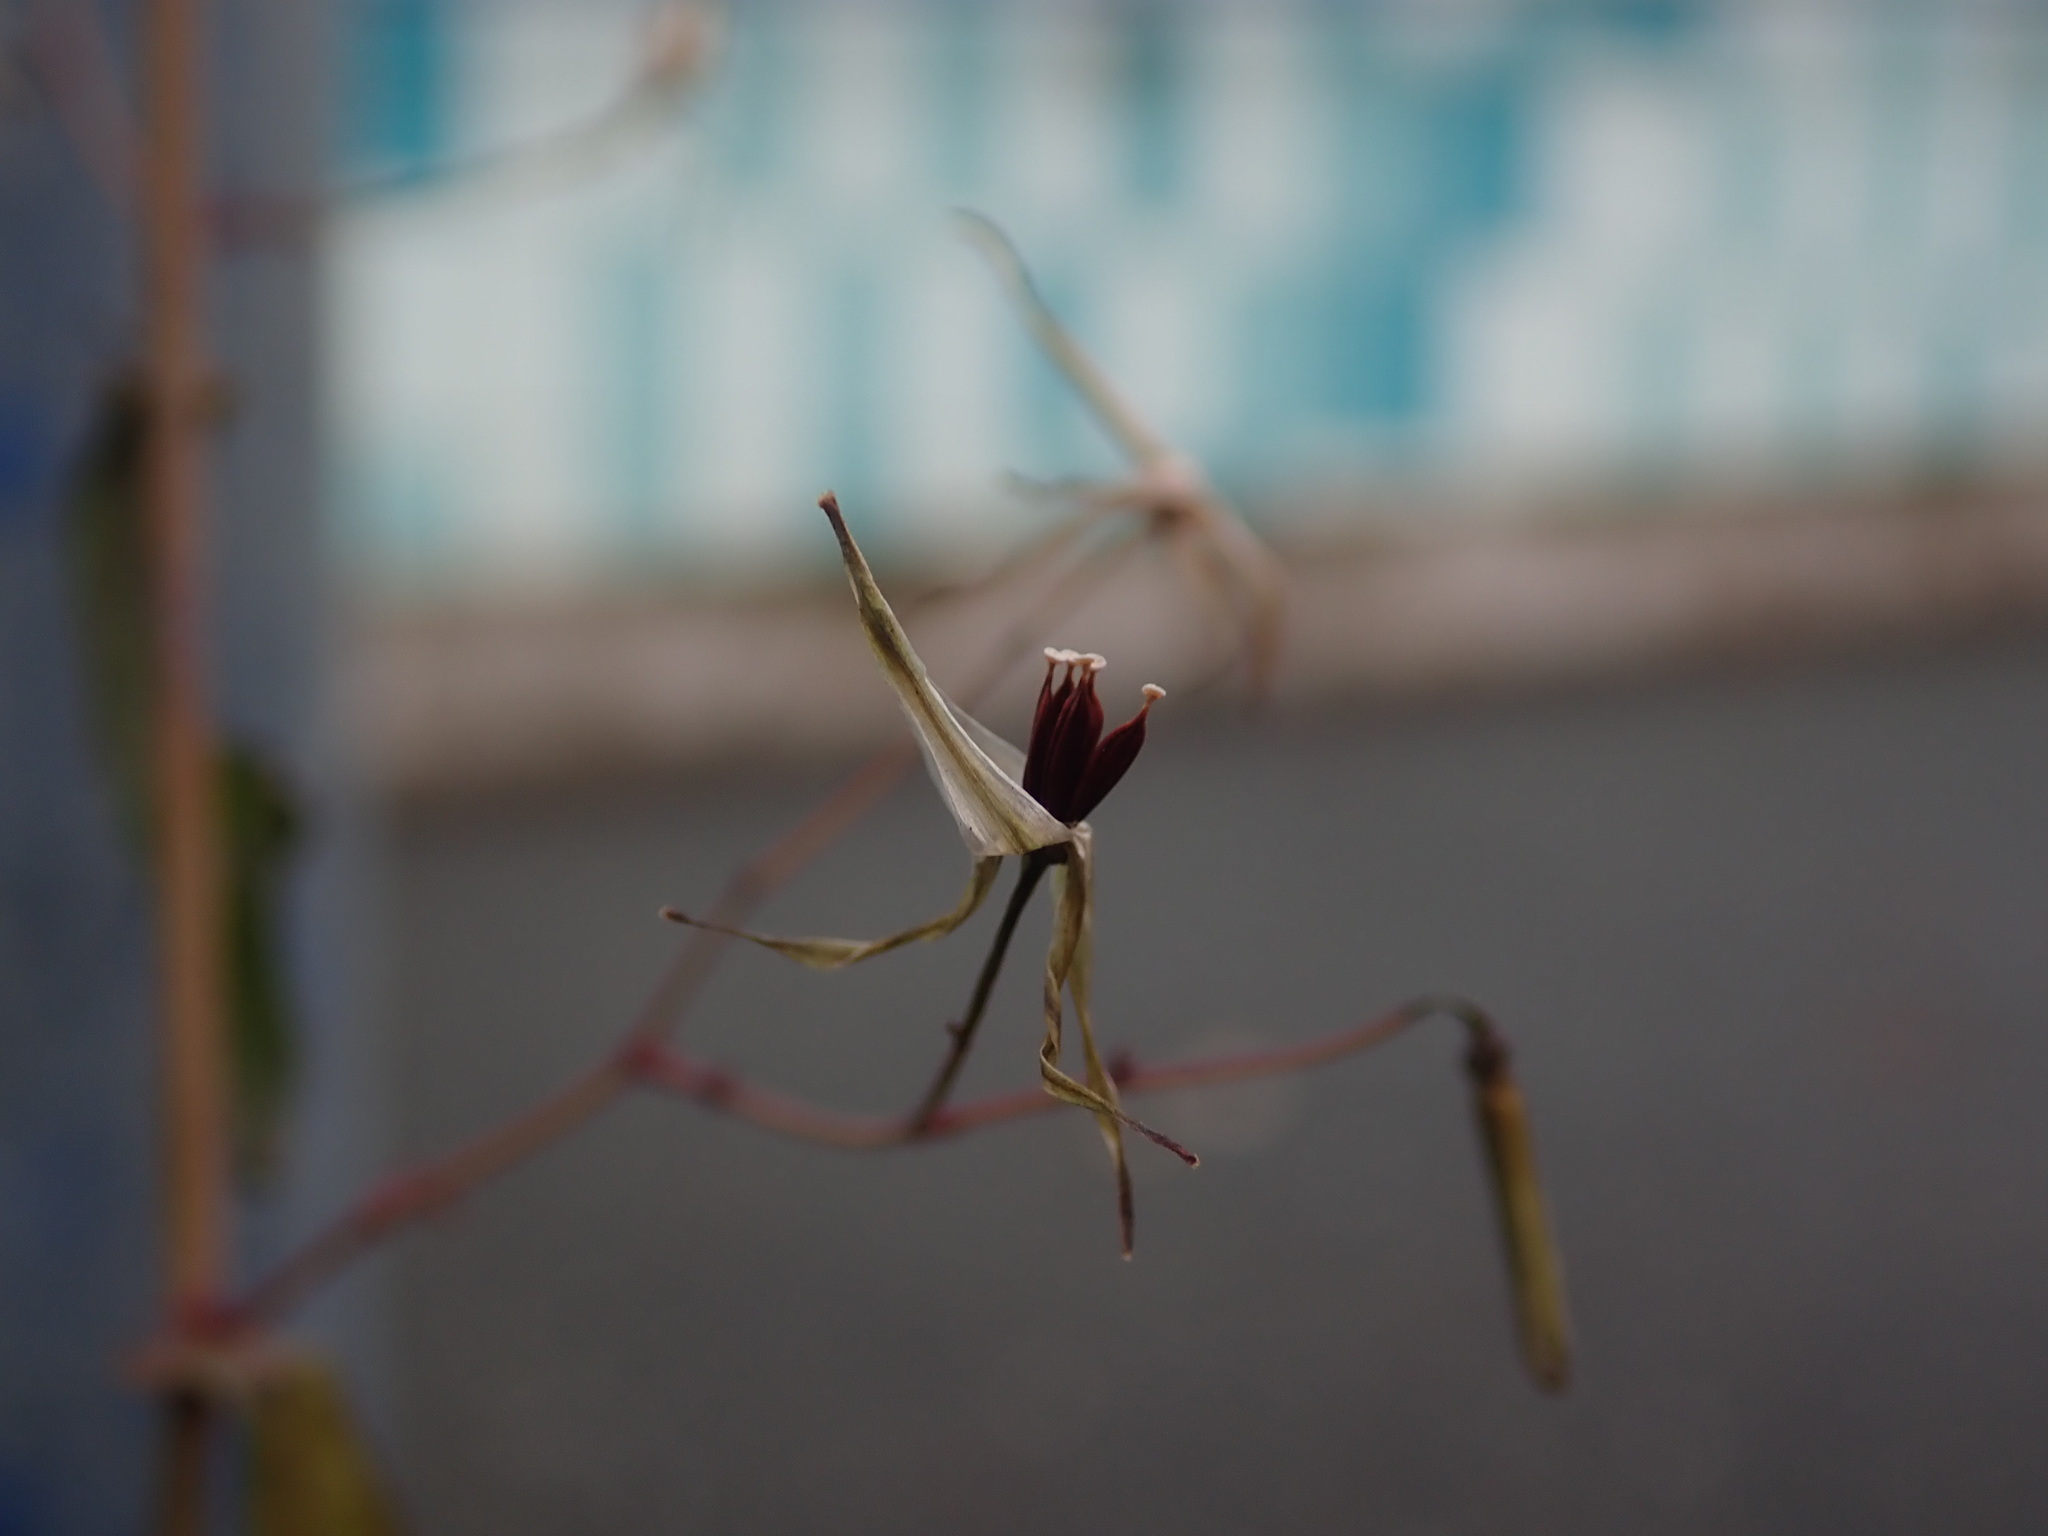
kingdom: Plantae
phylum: Tracheophyta
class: Magnoliopsida
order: Asterales
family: Asteraceae
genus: Mycelis
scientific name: Mycelis muralis
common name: Wall lettuce
